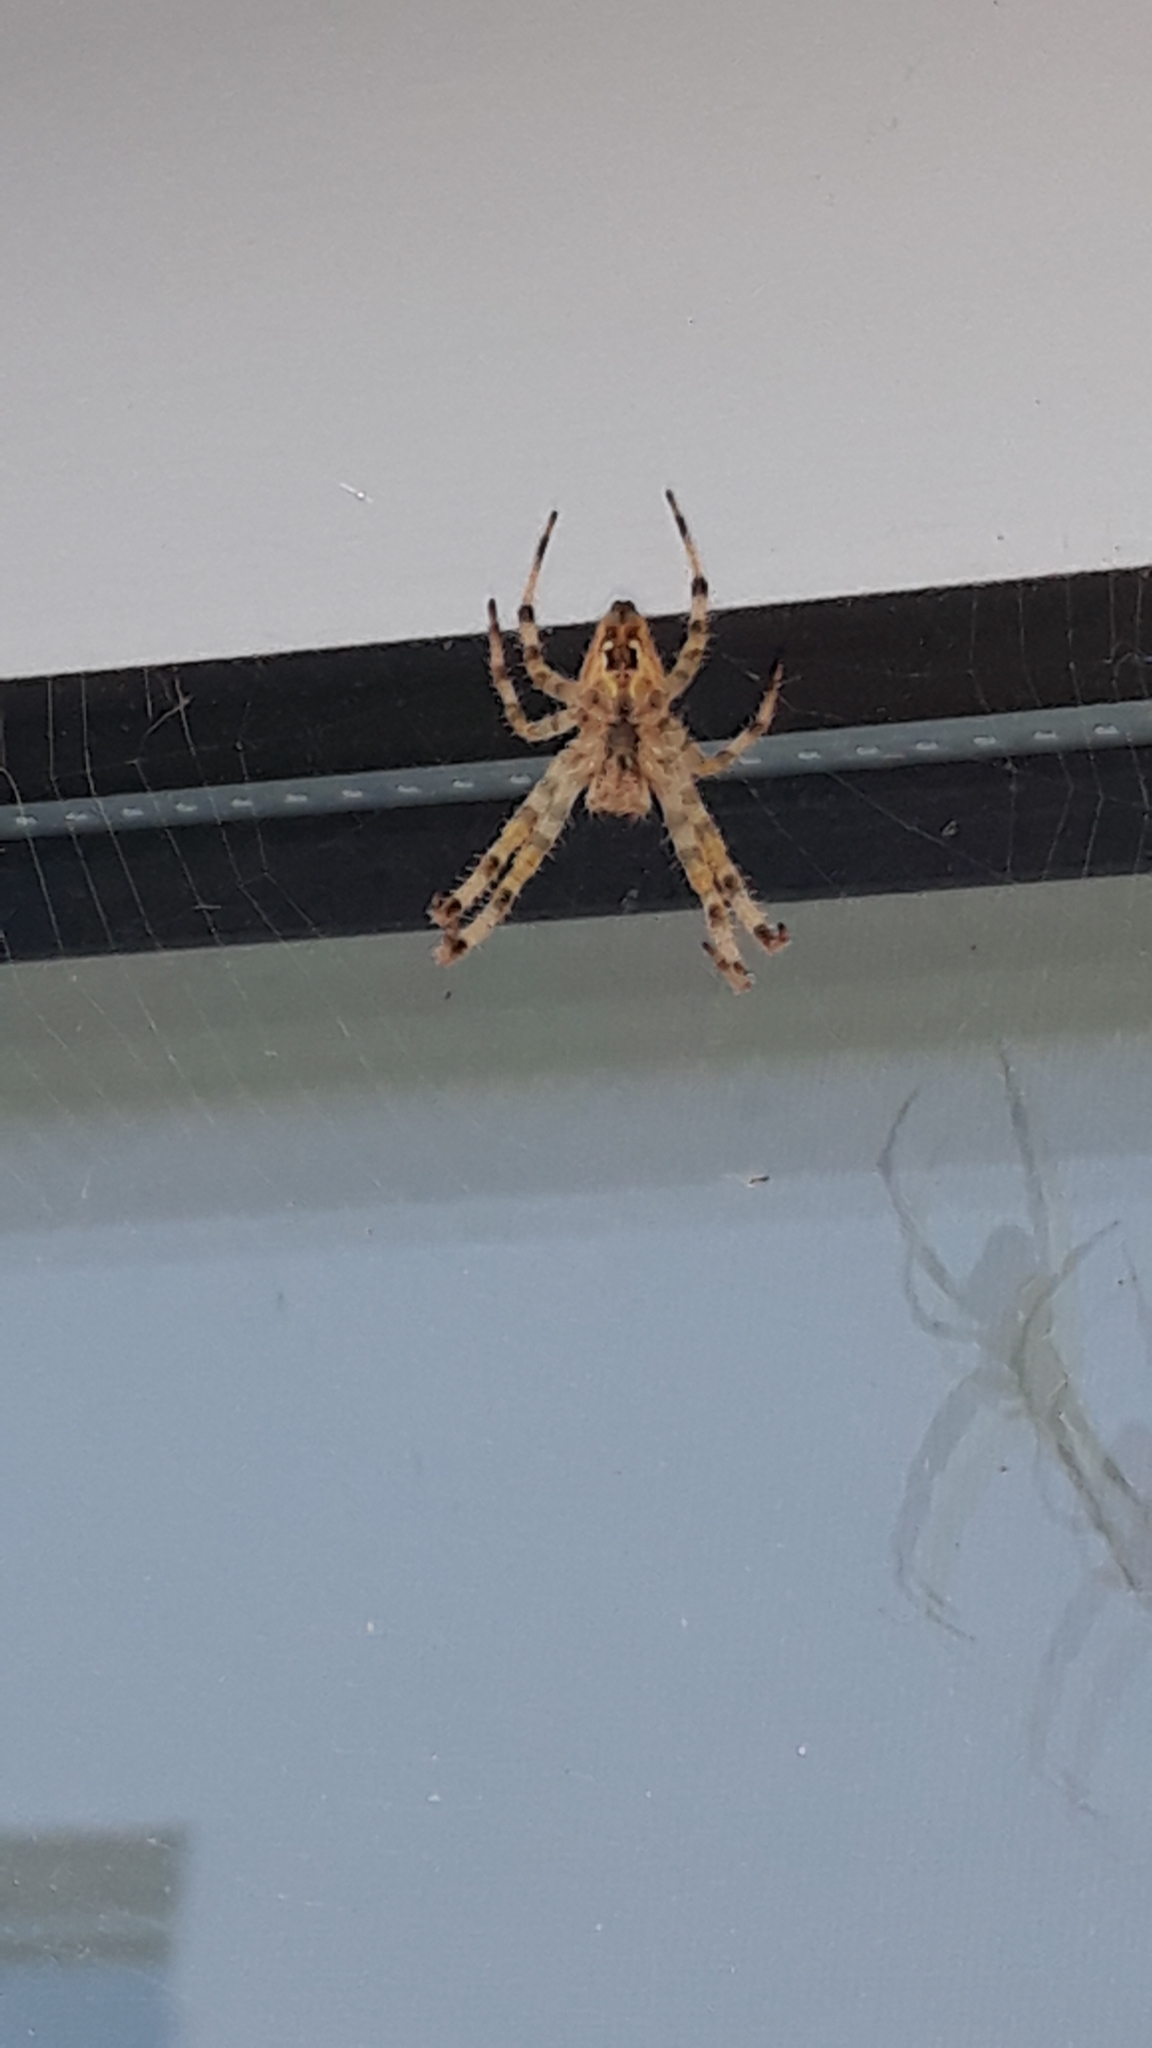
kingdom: Animalia
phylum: Arthropoda
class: Arachnida
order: Araneae
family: Araneidae
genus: Araneus
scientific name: Araneus diadematus
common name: Cross orbweaver
